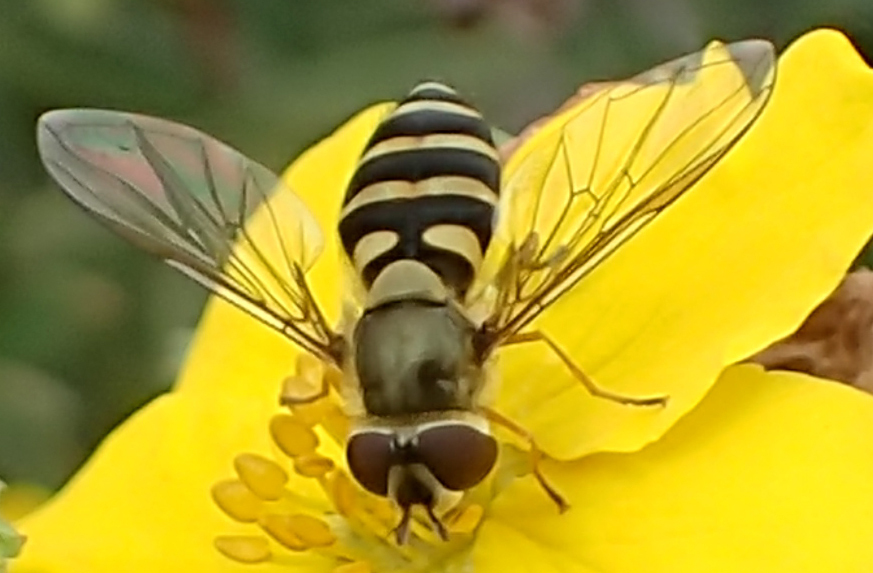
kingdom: Animalia
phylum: Arthropoda
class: Insecta
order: Diptera
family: Syrphidae
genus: Syrphus
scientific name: Syrphus
